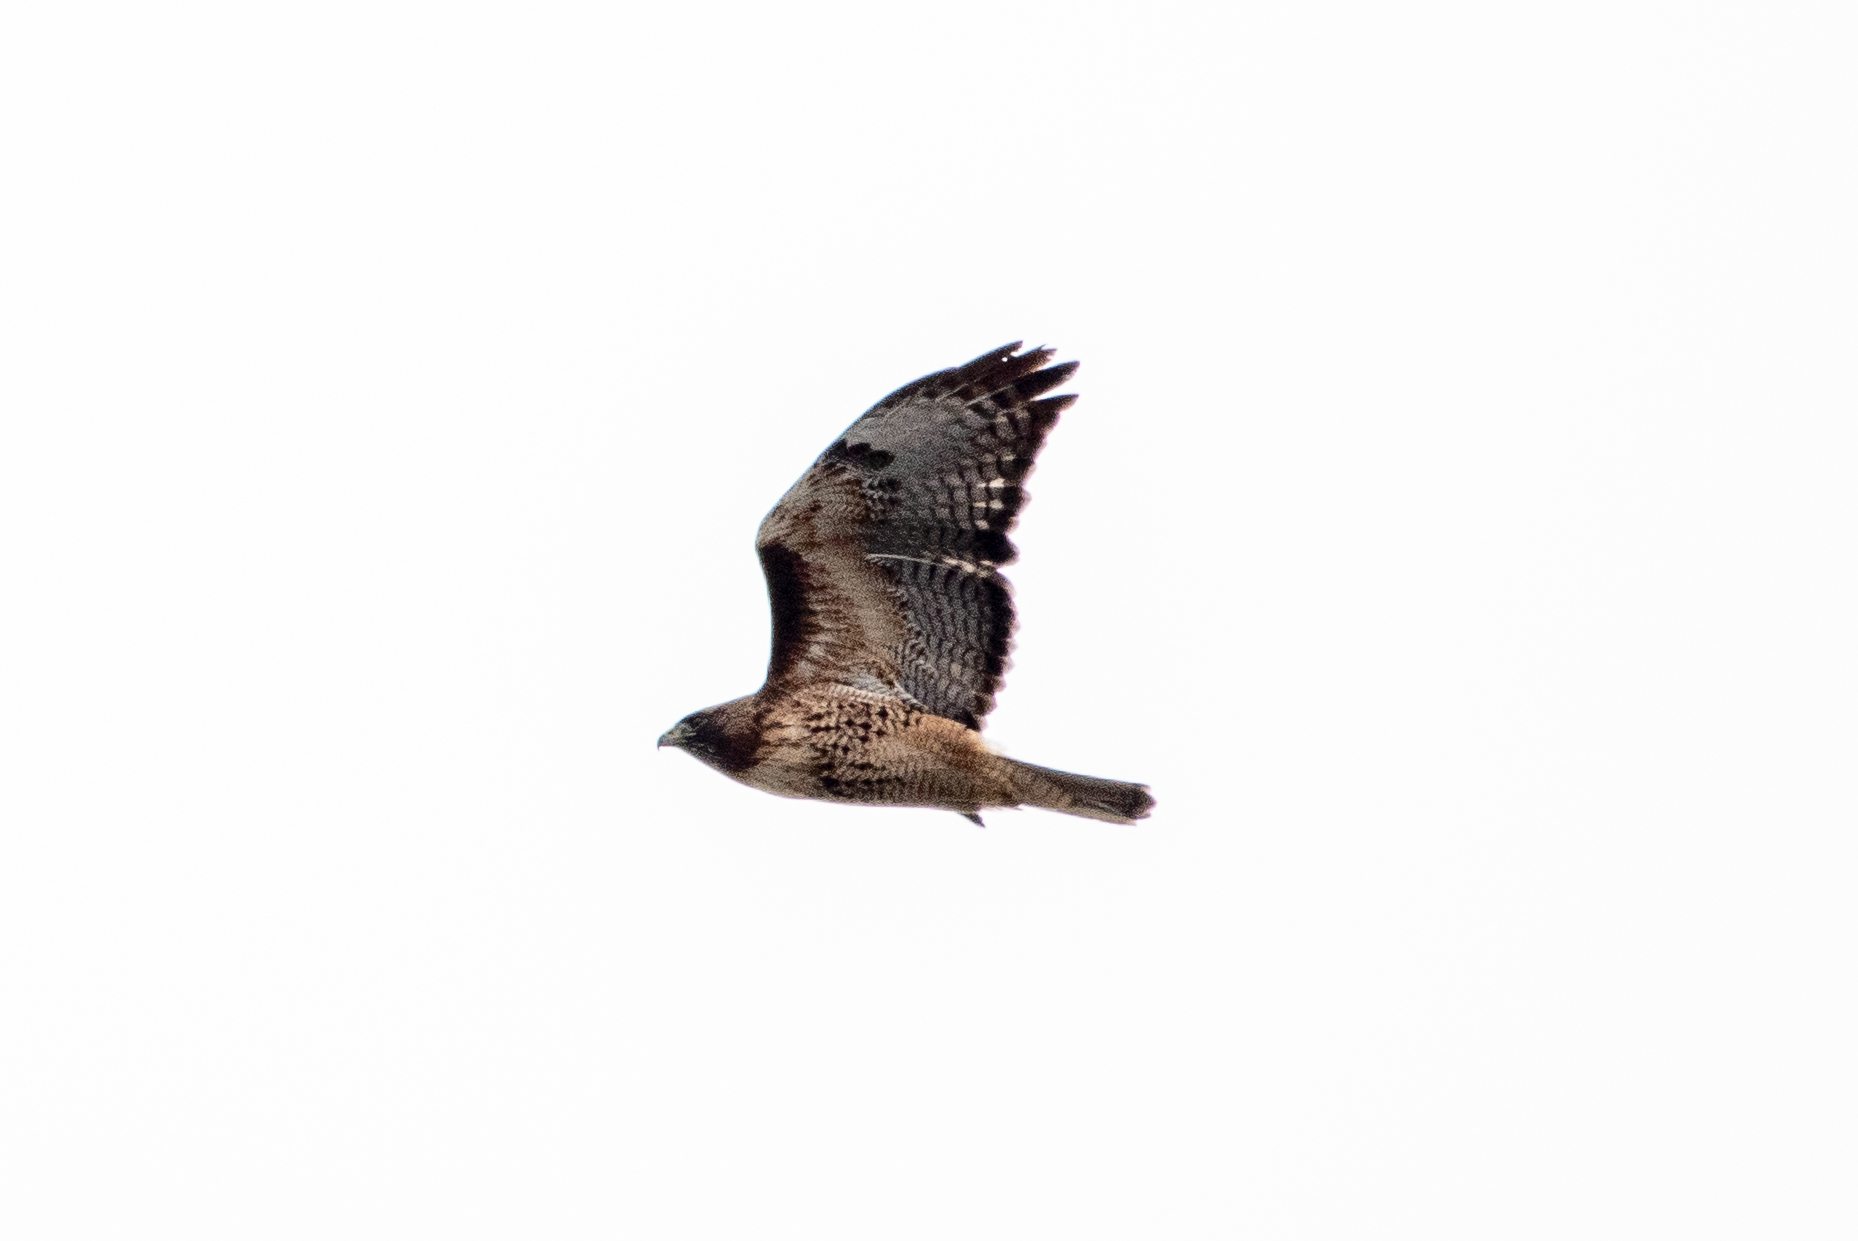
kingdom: Animalia
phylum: Chordata
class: Aves
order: Accipitriformes
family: Accipitridae
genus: Buteo
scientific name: Buteo jamaicensis
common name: Red-tailed hawk
